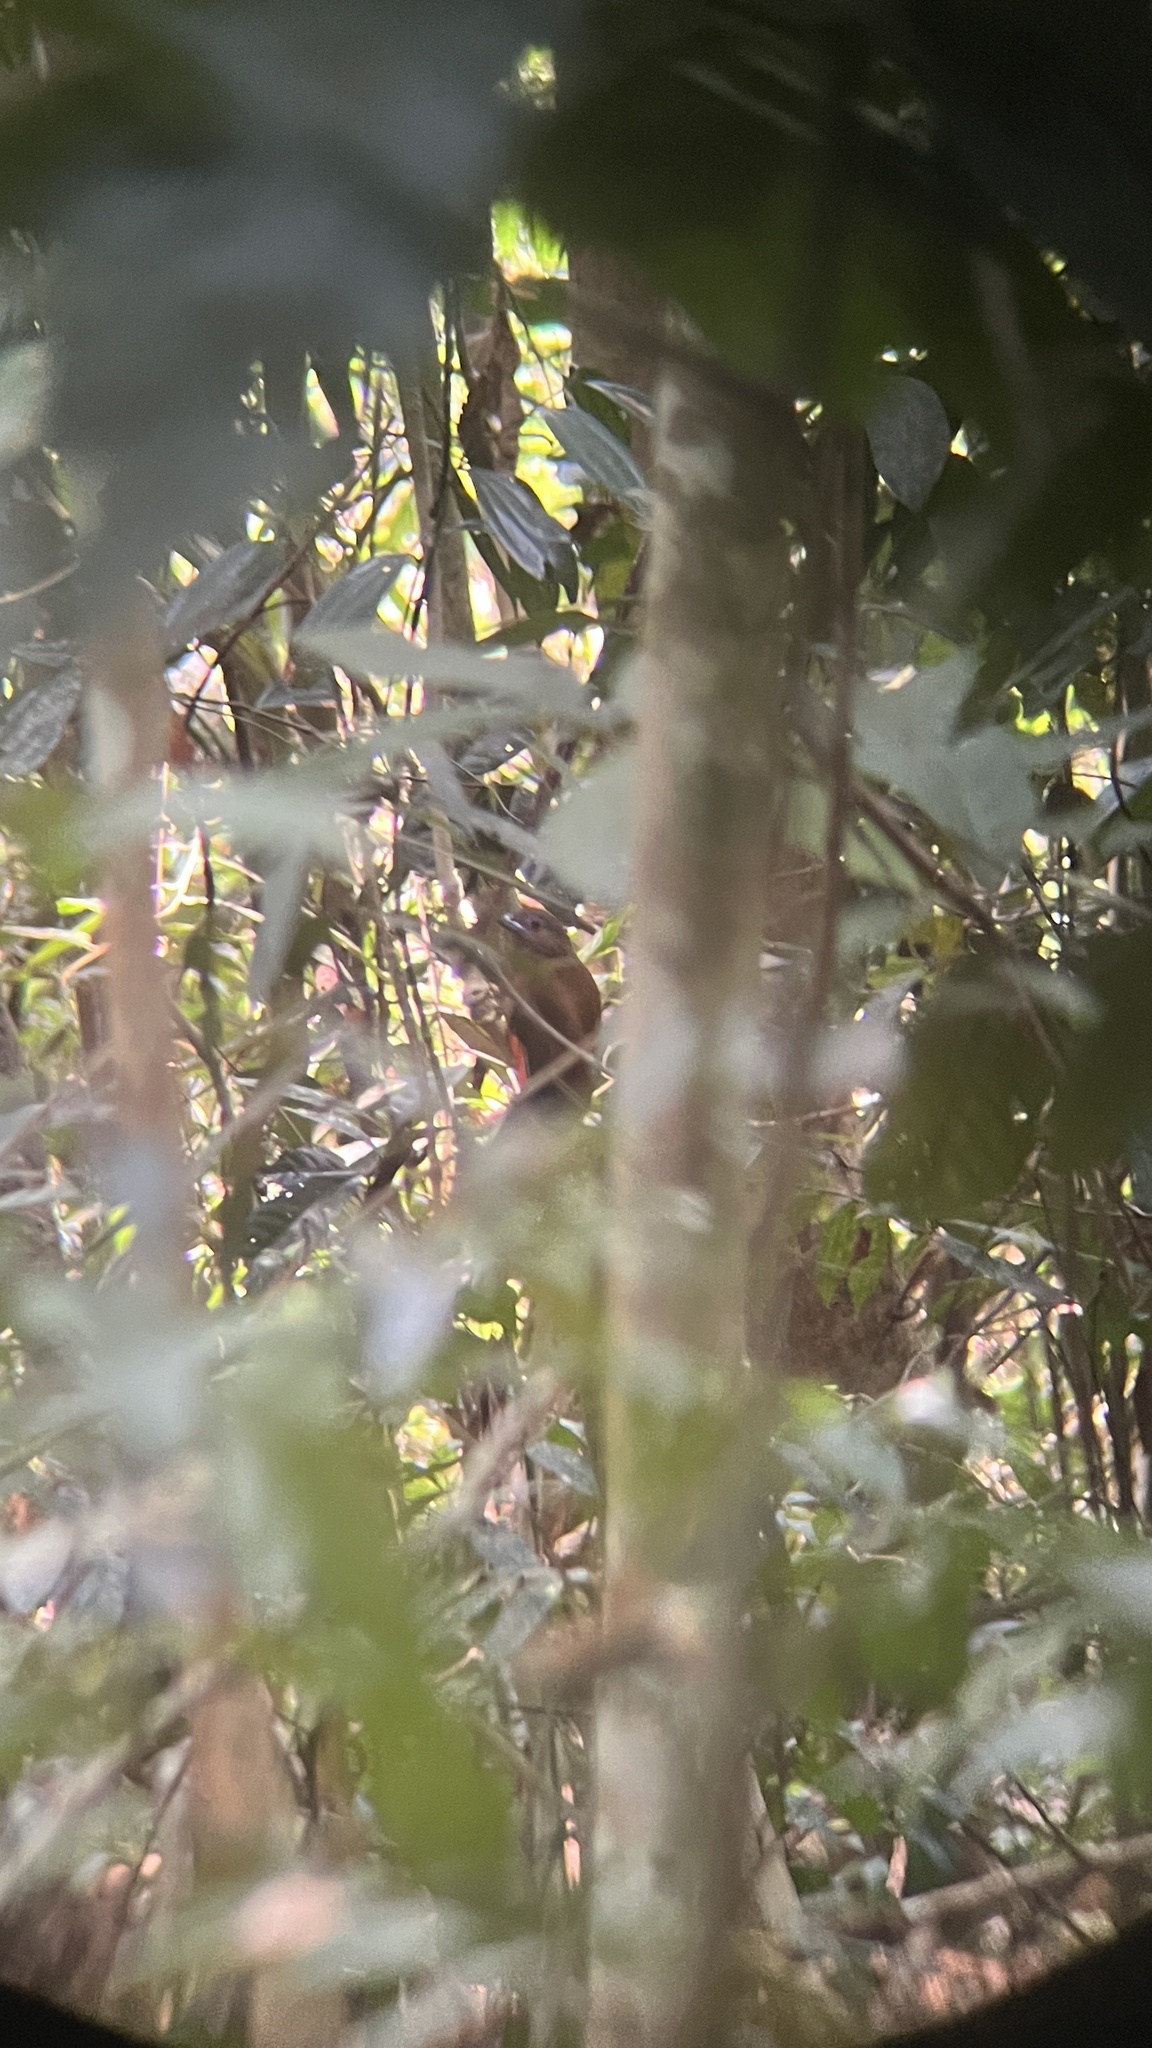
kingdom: Animalia
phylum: Chordata
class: Aves
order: Trogoniformes
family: Trogonidae
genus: Harpactes
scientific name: Harpactes erythrocephalus
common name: Red-headed trogon
